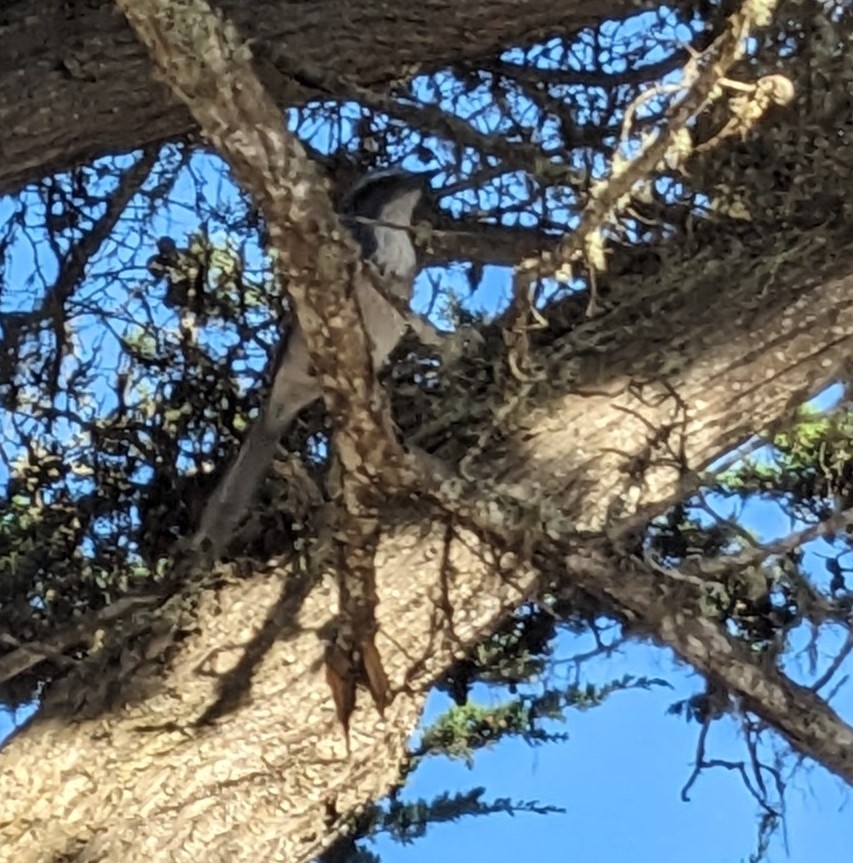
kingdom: Animalia
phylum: Chordata
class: Aves
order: Passeriformes
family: Corvidae
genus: Aphelocoma
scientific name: Aphelocoma californica
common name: California scrub-jay
